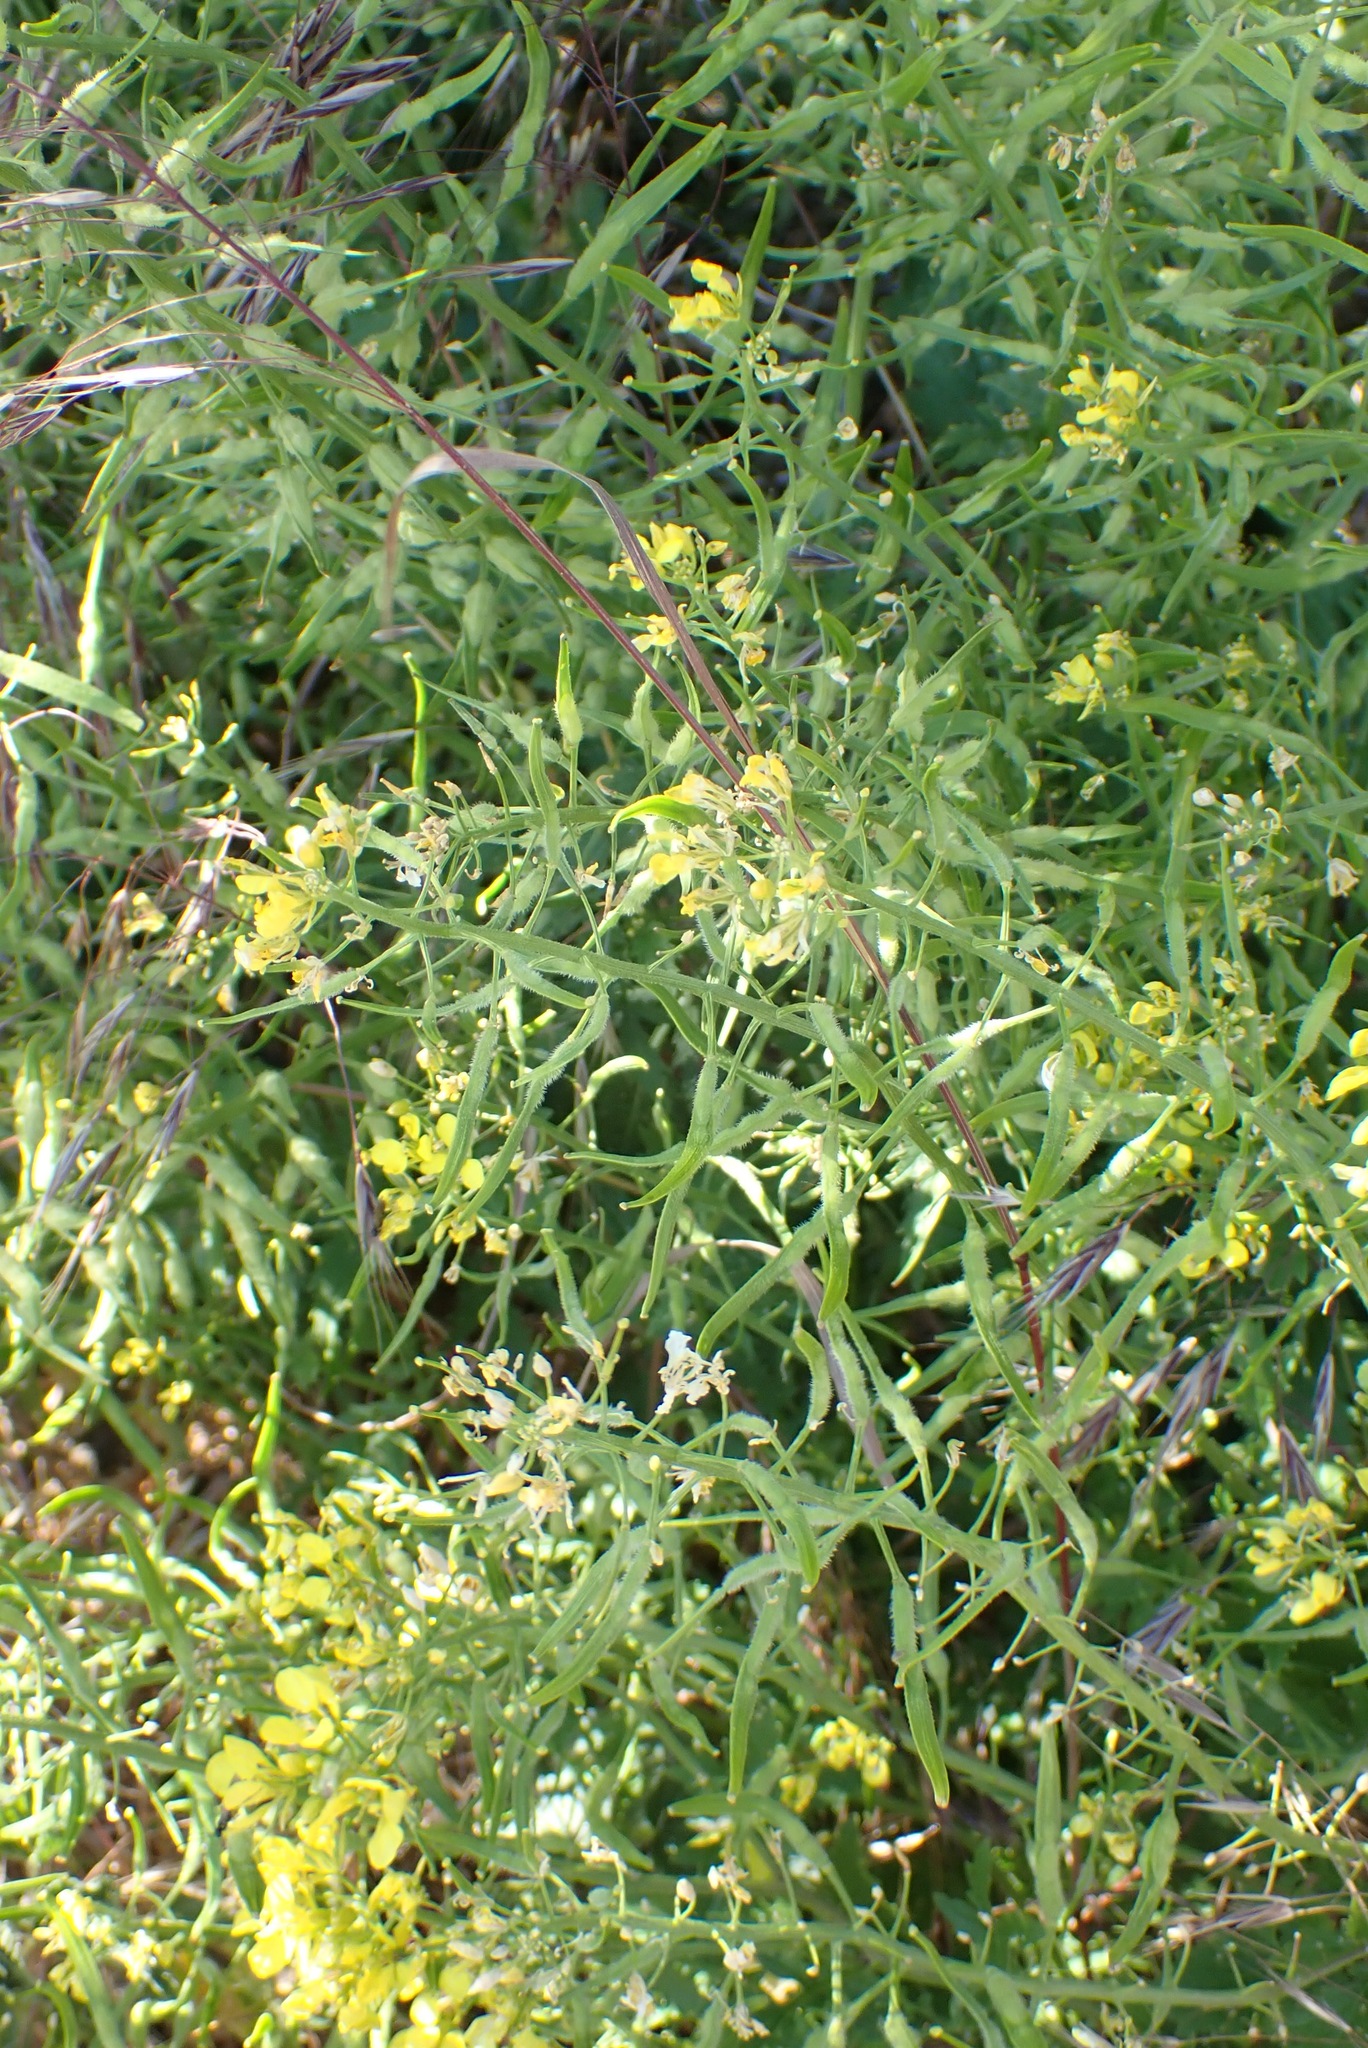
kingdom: Plantae
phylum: Tracheophyta
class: Magnoliopsida
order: Brassicales
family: Brassicaceae
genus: Sinapis
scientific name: Sinapis alba
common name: White mustard
